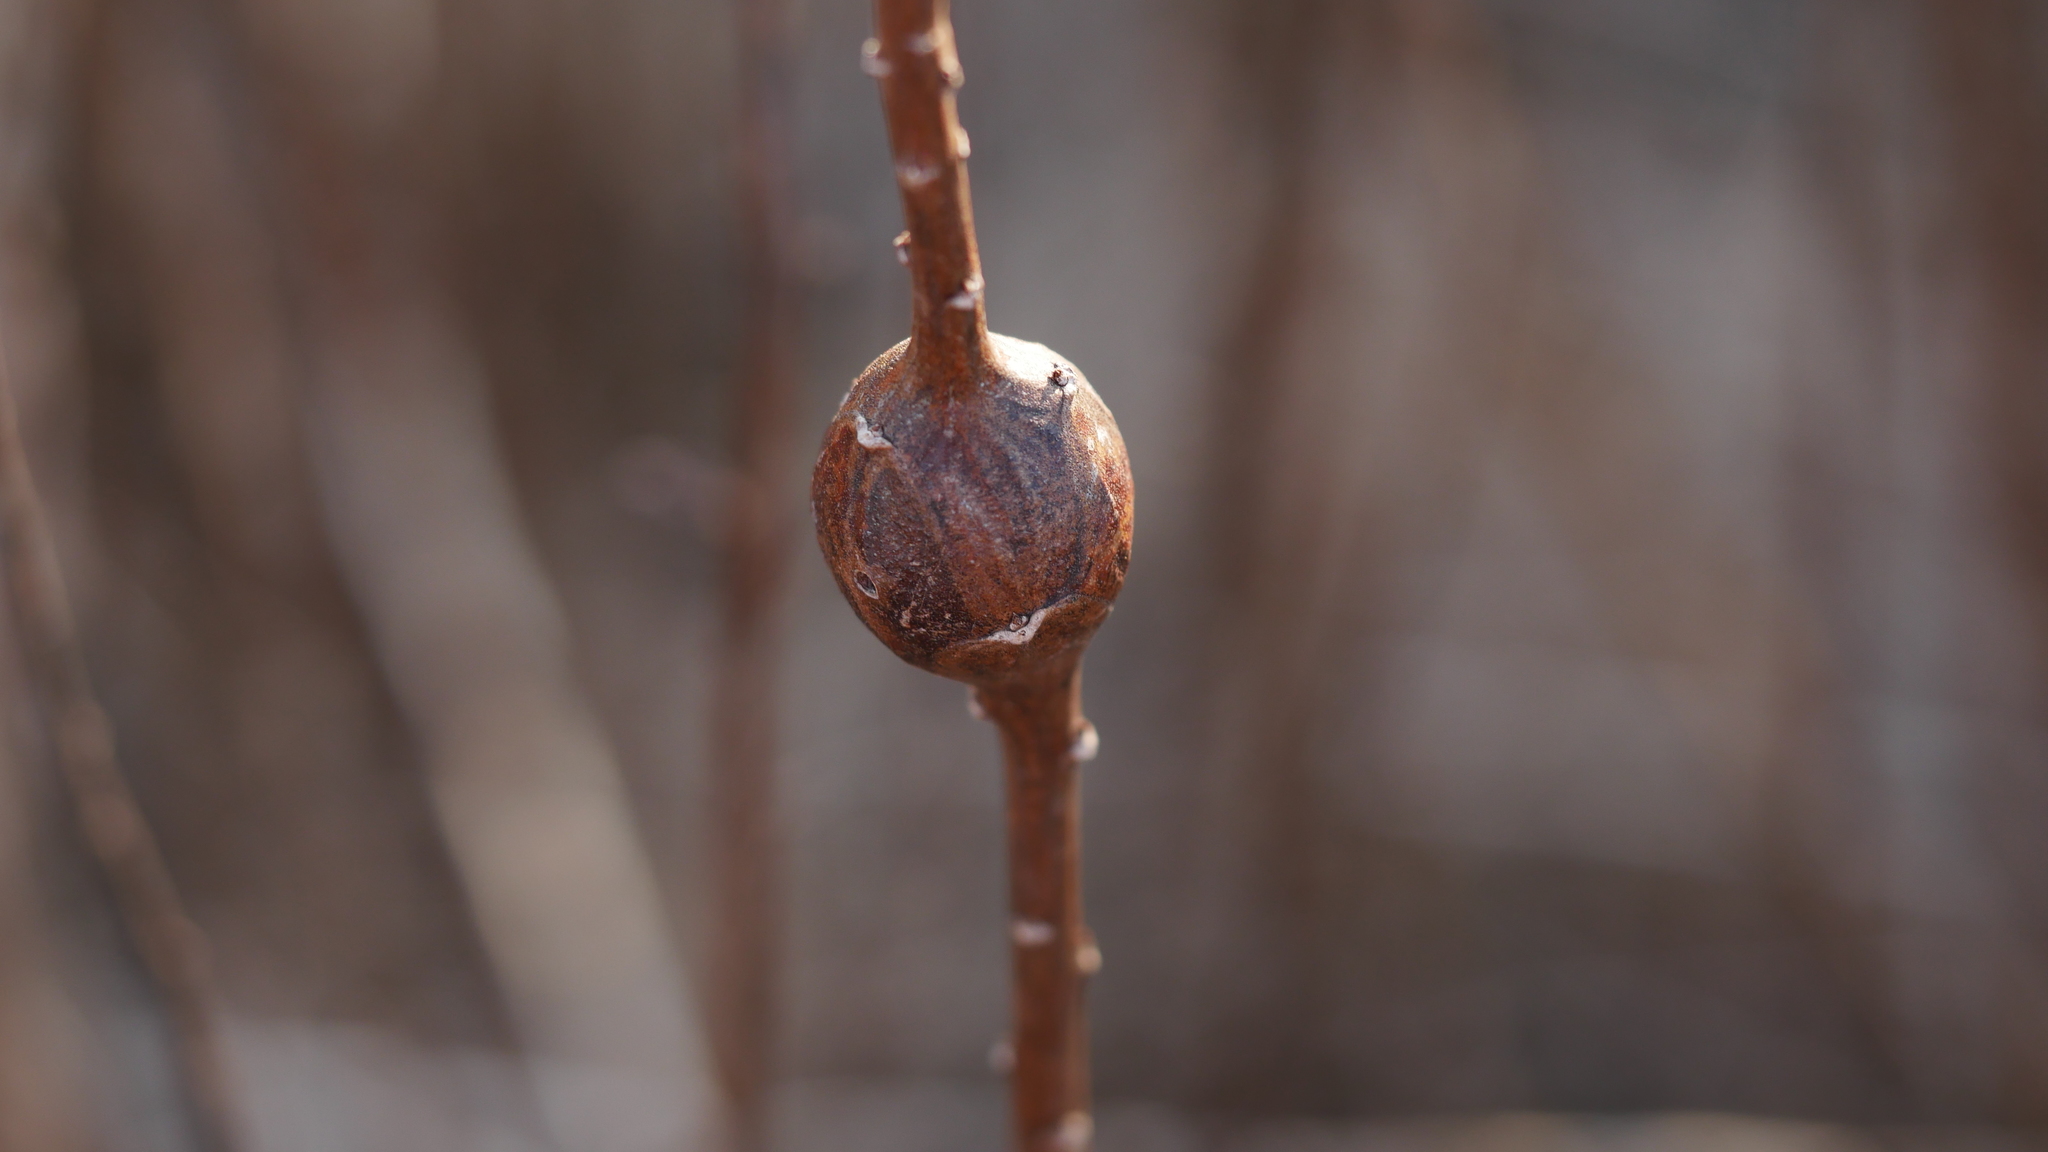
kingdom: Animalia
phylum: Arthropoda
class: Insecta
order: Diptera
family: Tephritidae
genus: Eurosta
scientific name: Eurosta solidaginis
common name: Goldenrod gall fly
